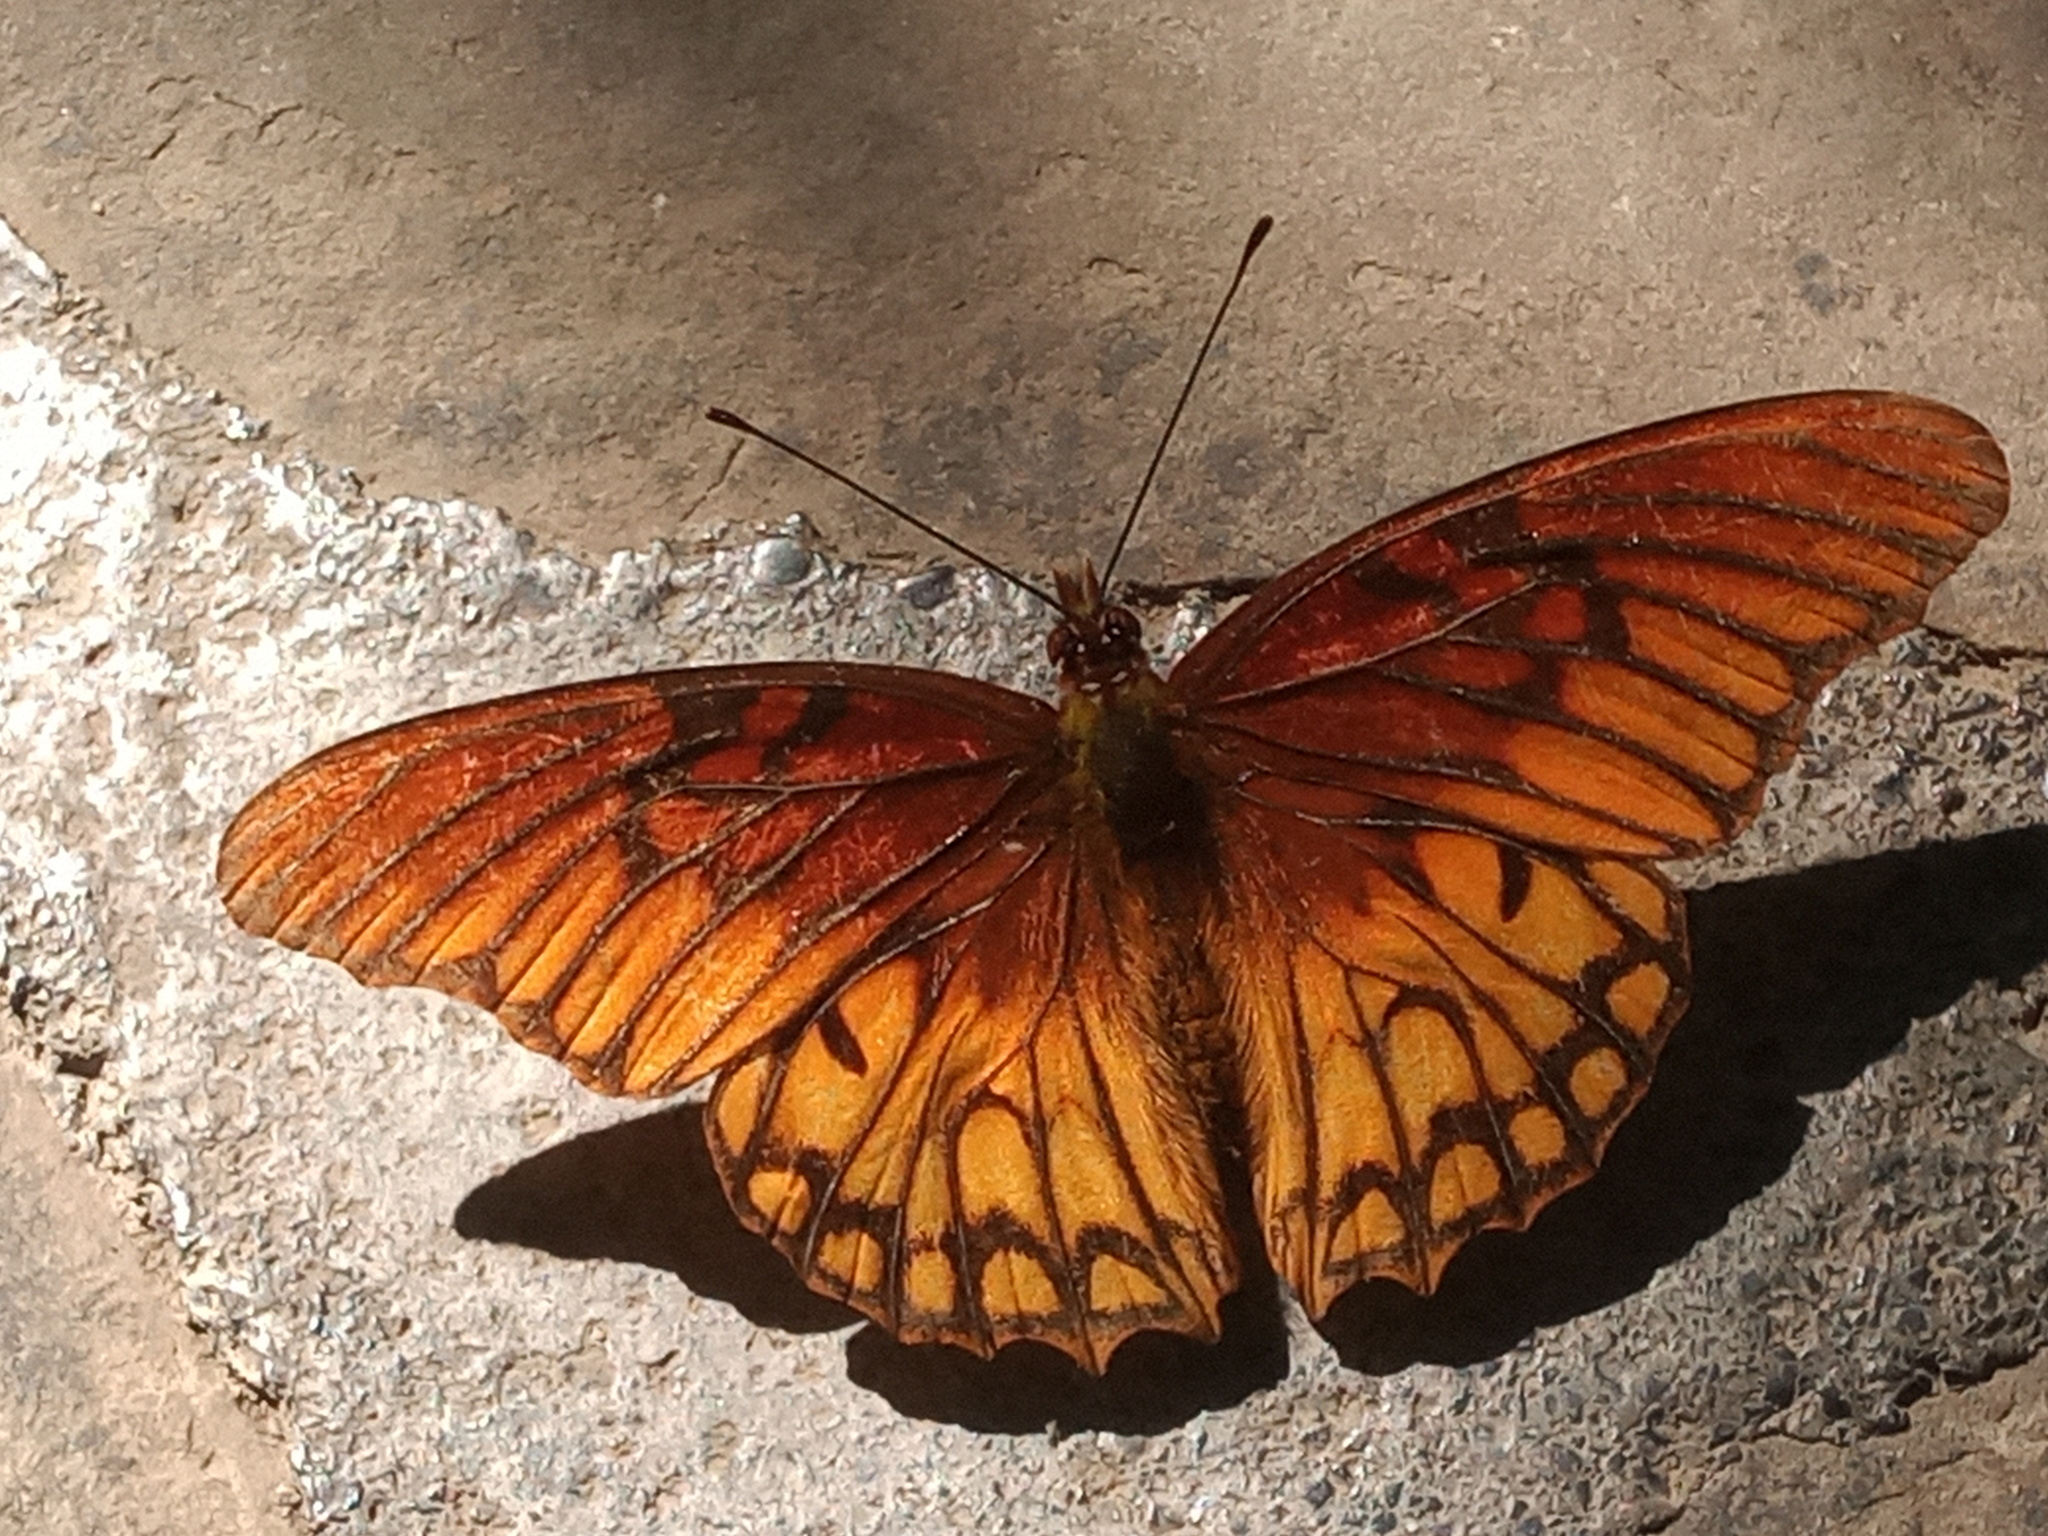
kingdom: Animalia
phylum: Arthropoda
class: Insecta
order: Lepidoptera
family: Nymphalidae
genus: Dione
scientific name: Dione moneta
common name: Mexican silverspot
